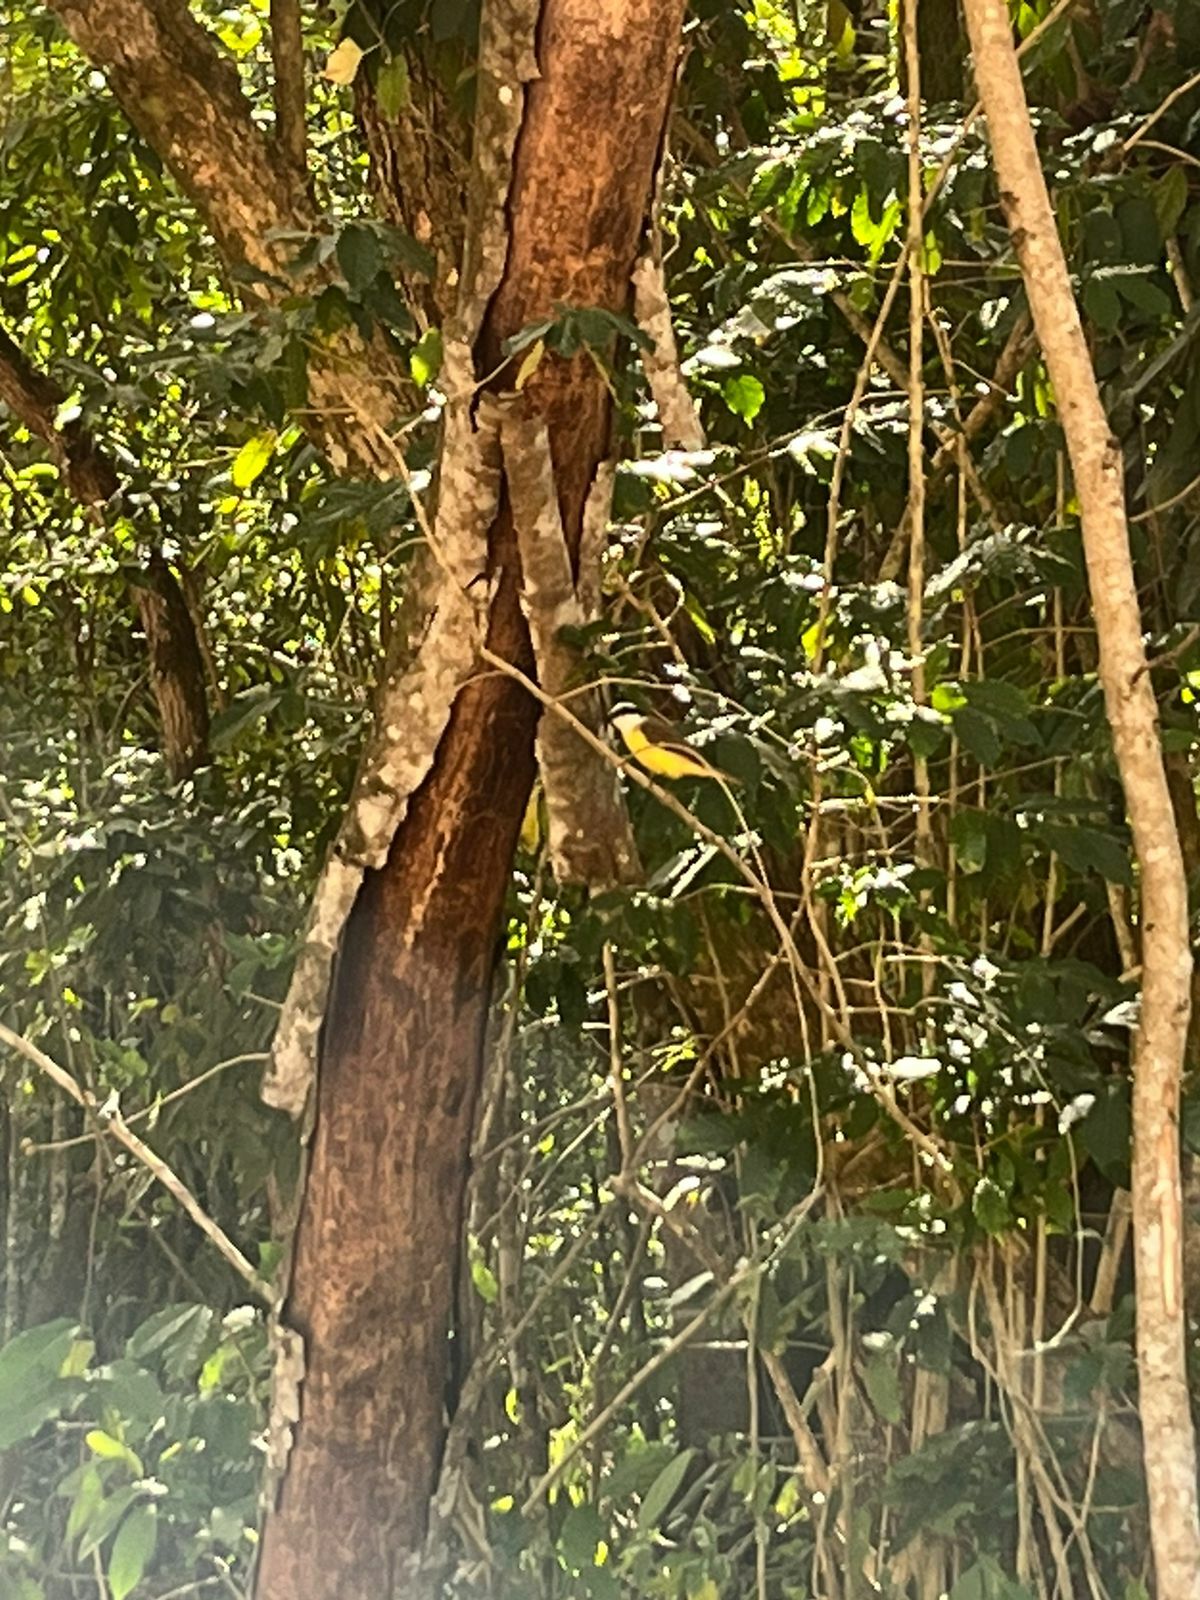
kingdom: Animalia
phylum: Chordata
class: Aves
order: Passeriformes
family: Tyrannidae
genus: Pitangus
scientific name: Pitangus sulphuratus
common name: Great kiskadee
